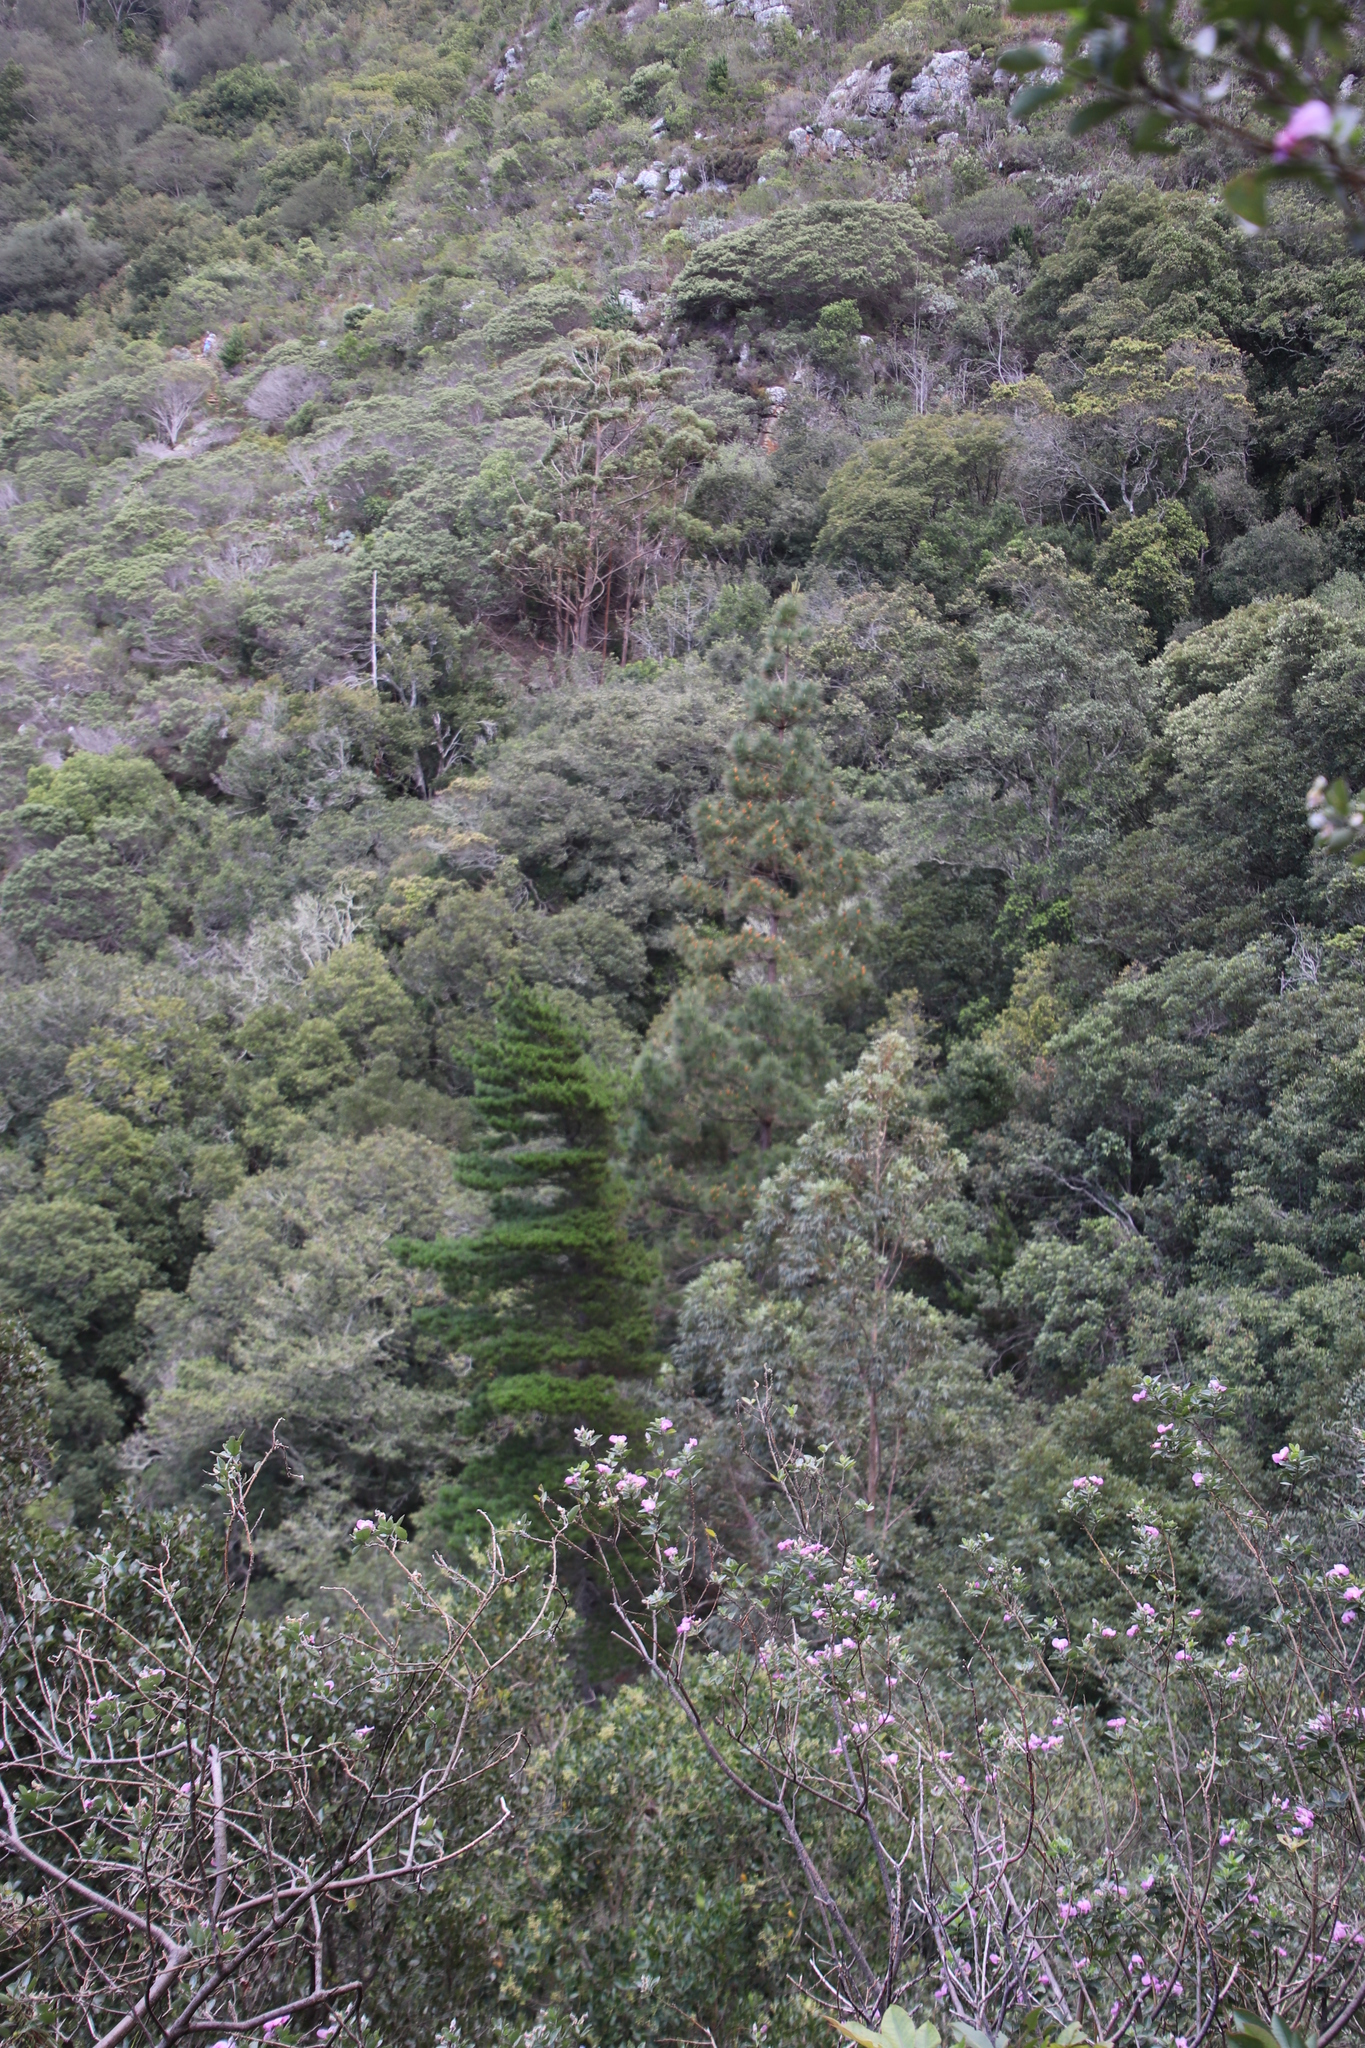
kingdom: Plantae
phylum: Tracheophyta
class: Pinopsida
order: Pinales
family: Pinaceae
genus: Pinus
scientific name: Pinus radiata
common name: Monterey pine
